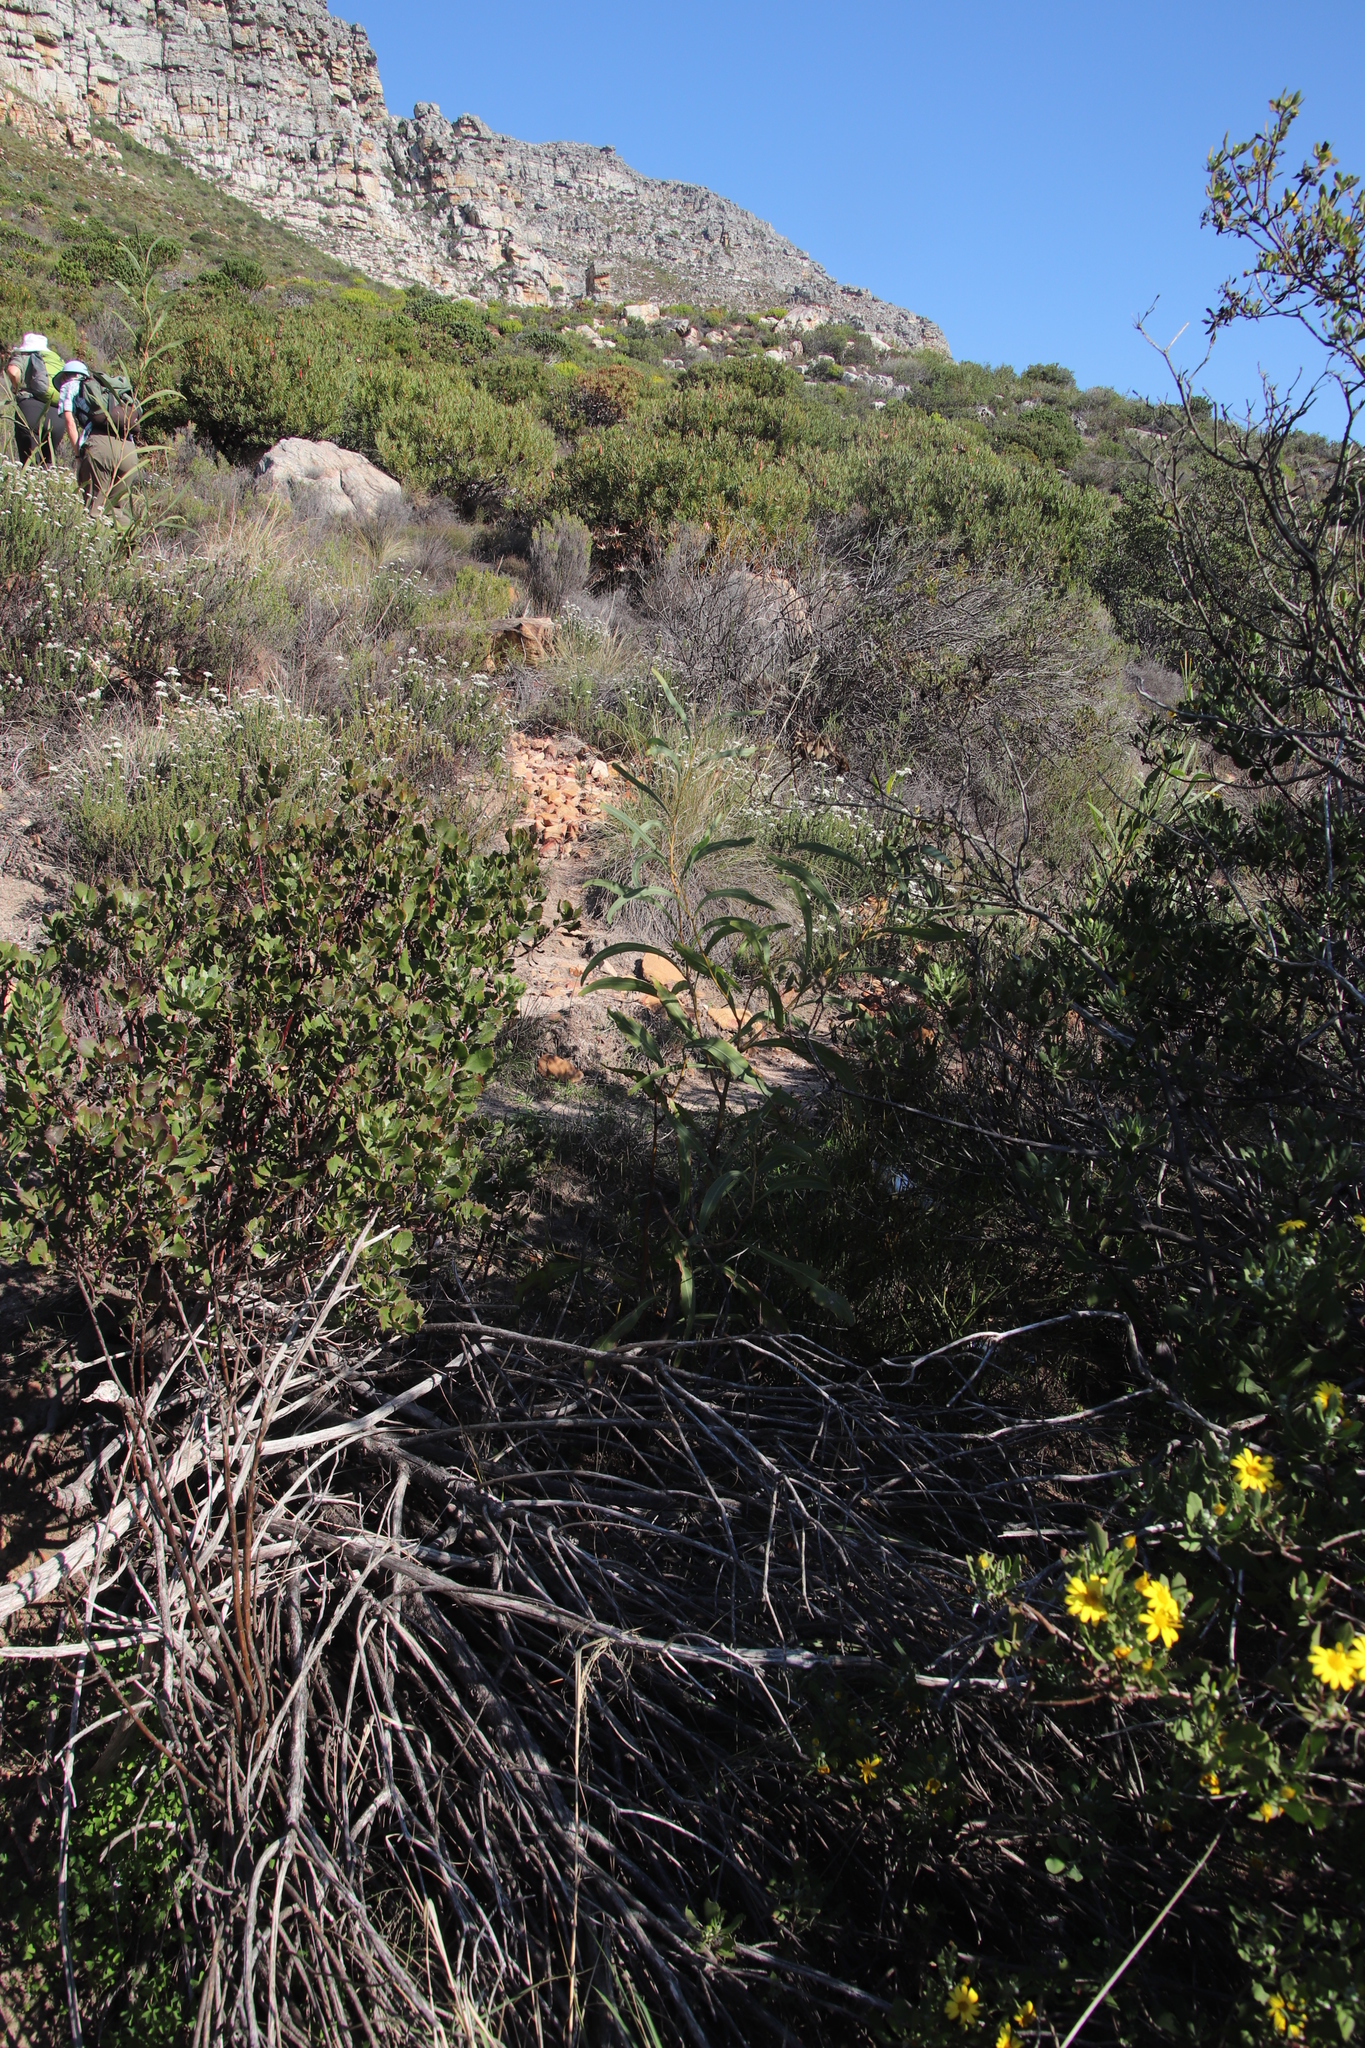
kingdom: Plantae
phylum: Tracheophyta
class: Magnoliopsida
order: Fabales
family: Fabaceae
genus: Acacia
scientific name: Acacia saligna
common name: Orange wattle
